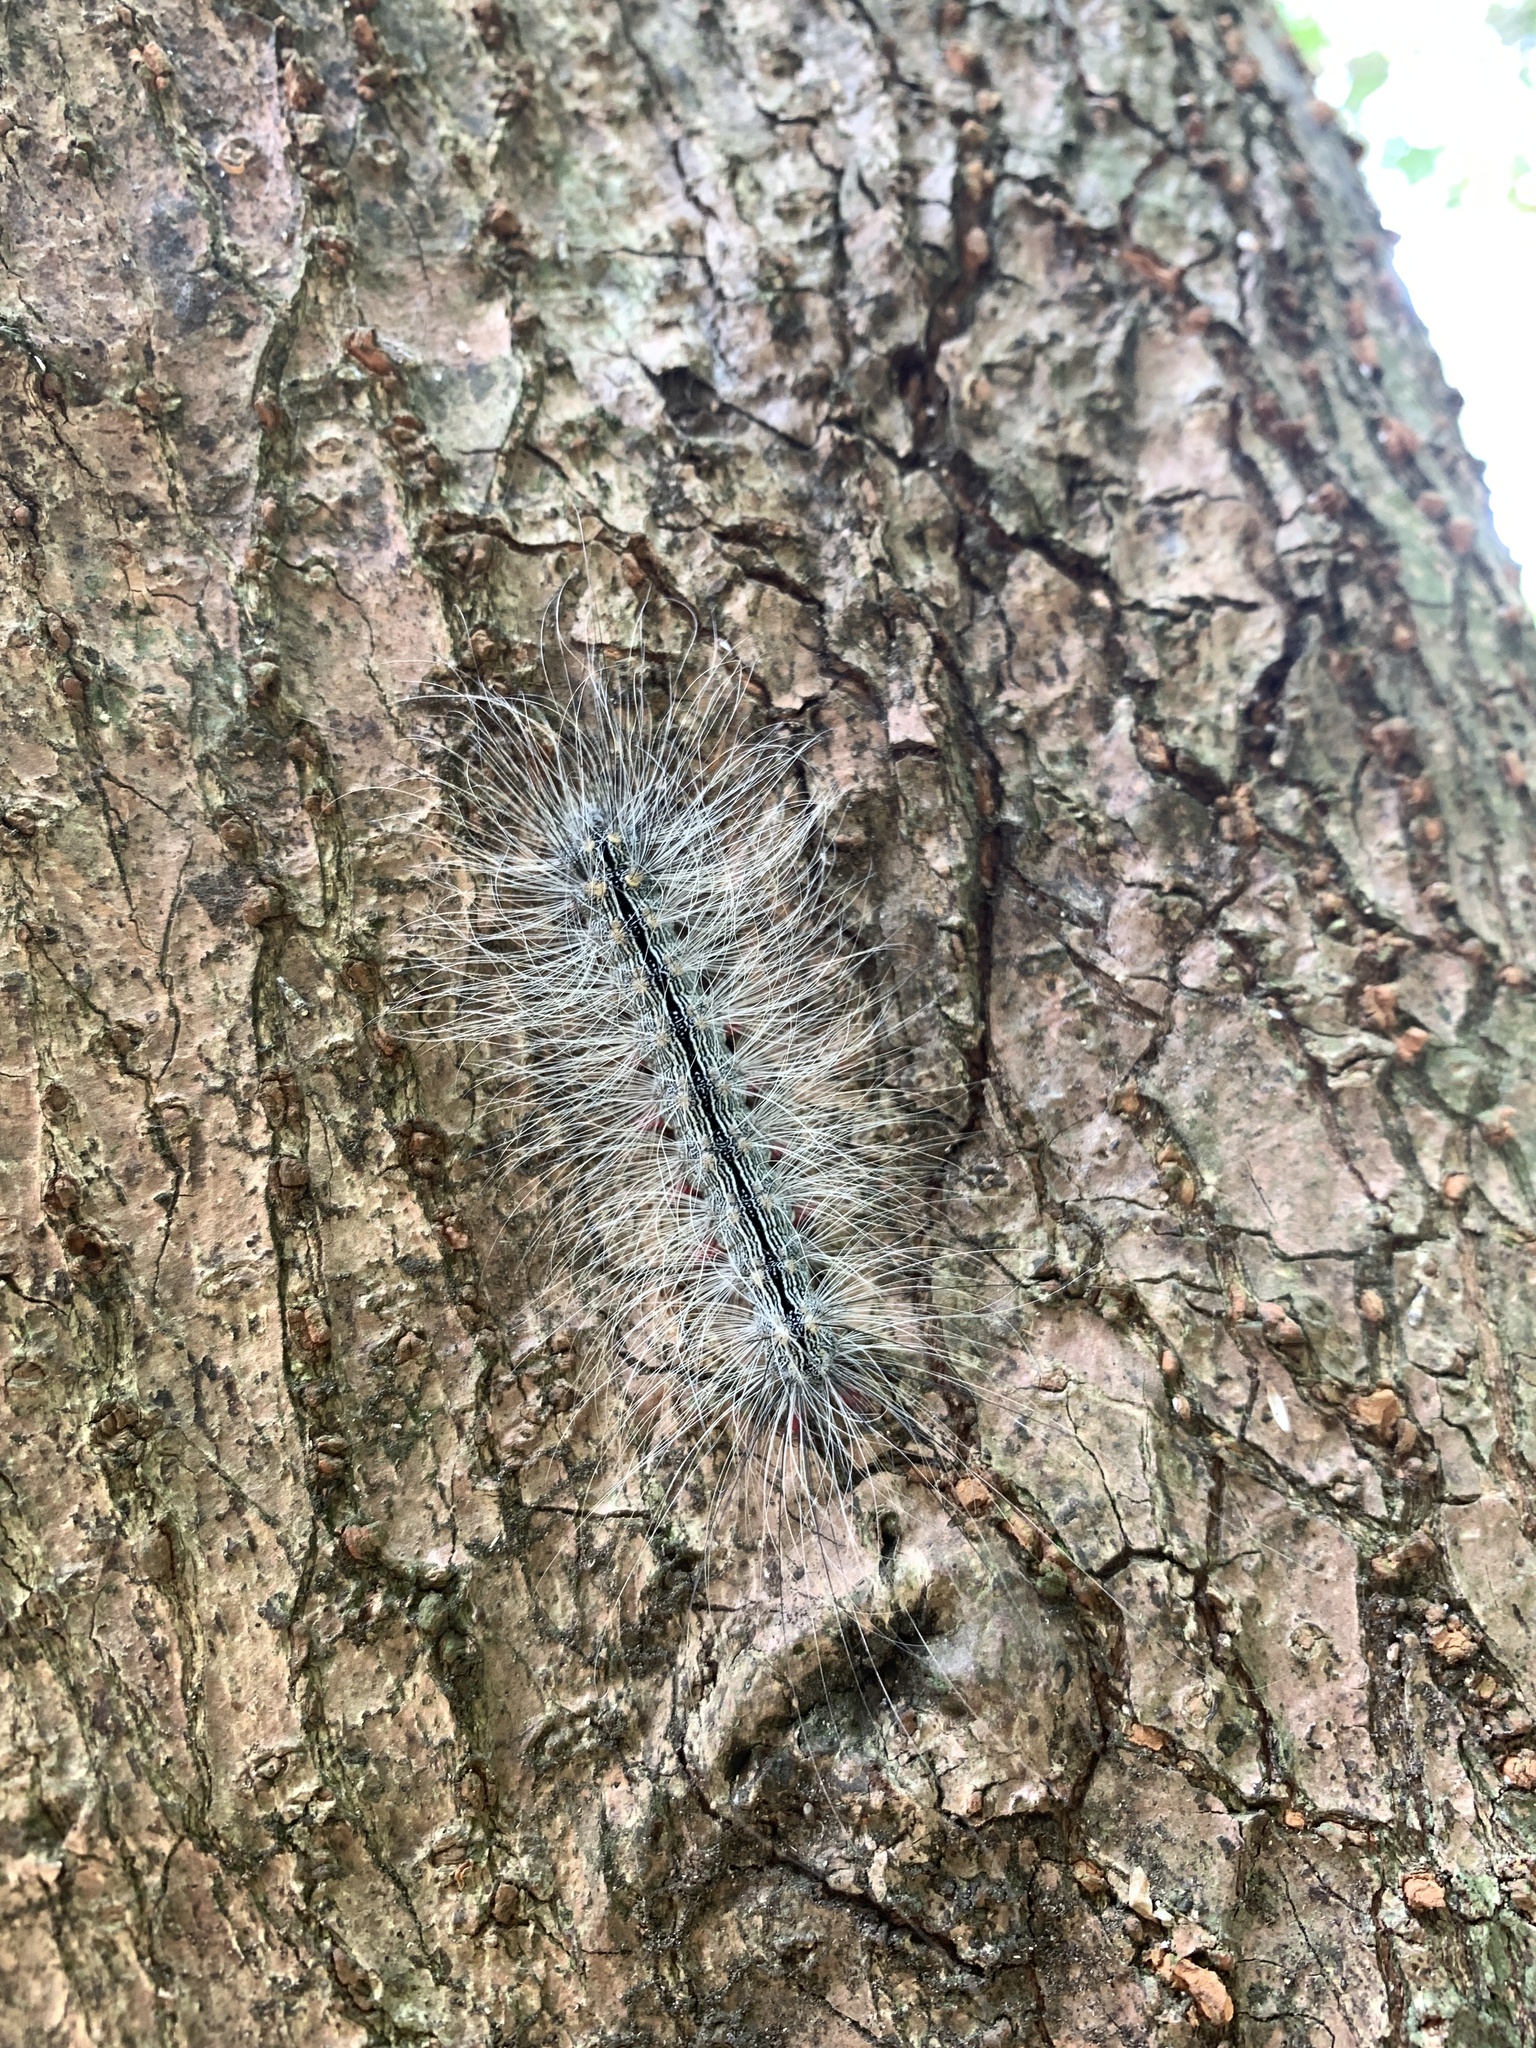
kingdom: Animalia
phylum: Arthropoda
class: Insecta
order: Lepidoptera
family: Erebidae
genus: Chrysaeglia
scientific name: Chrysaeglia magnifica
